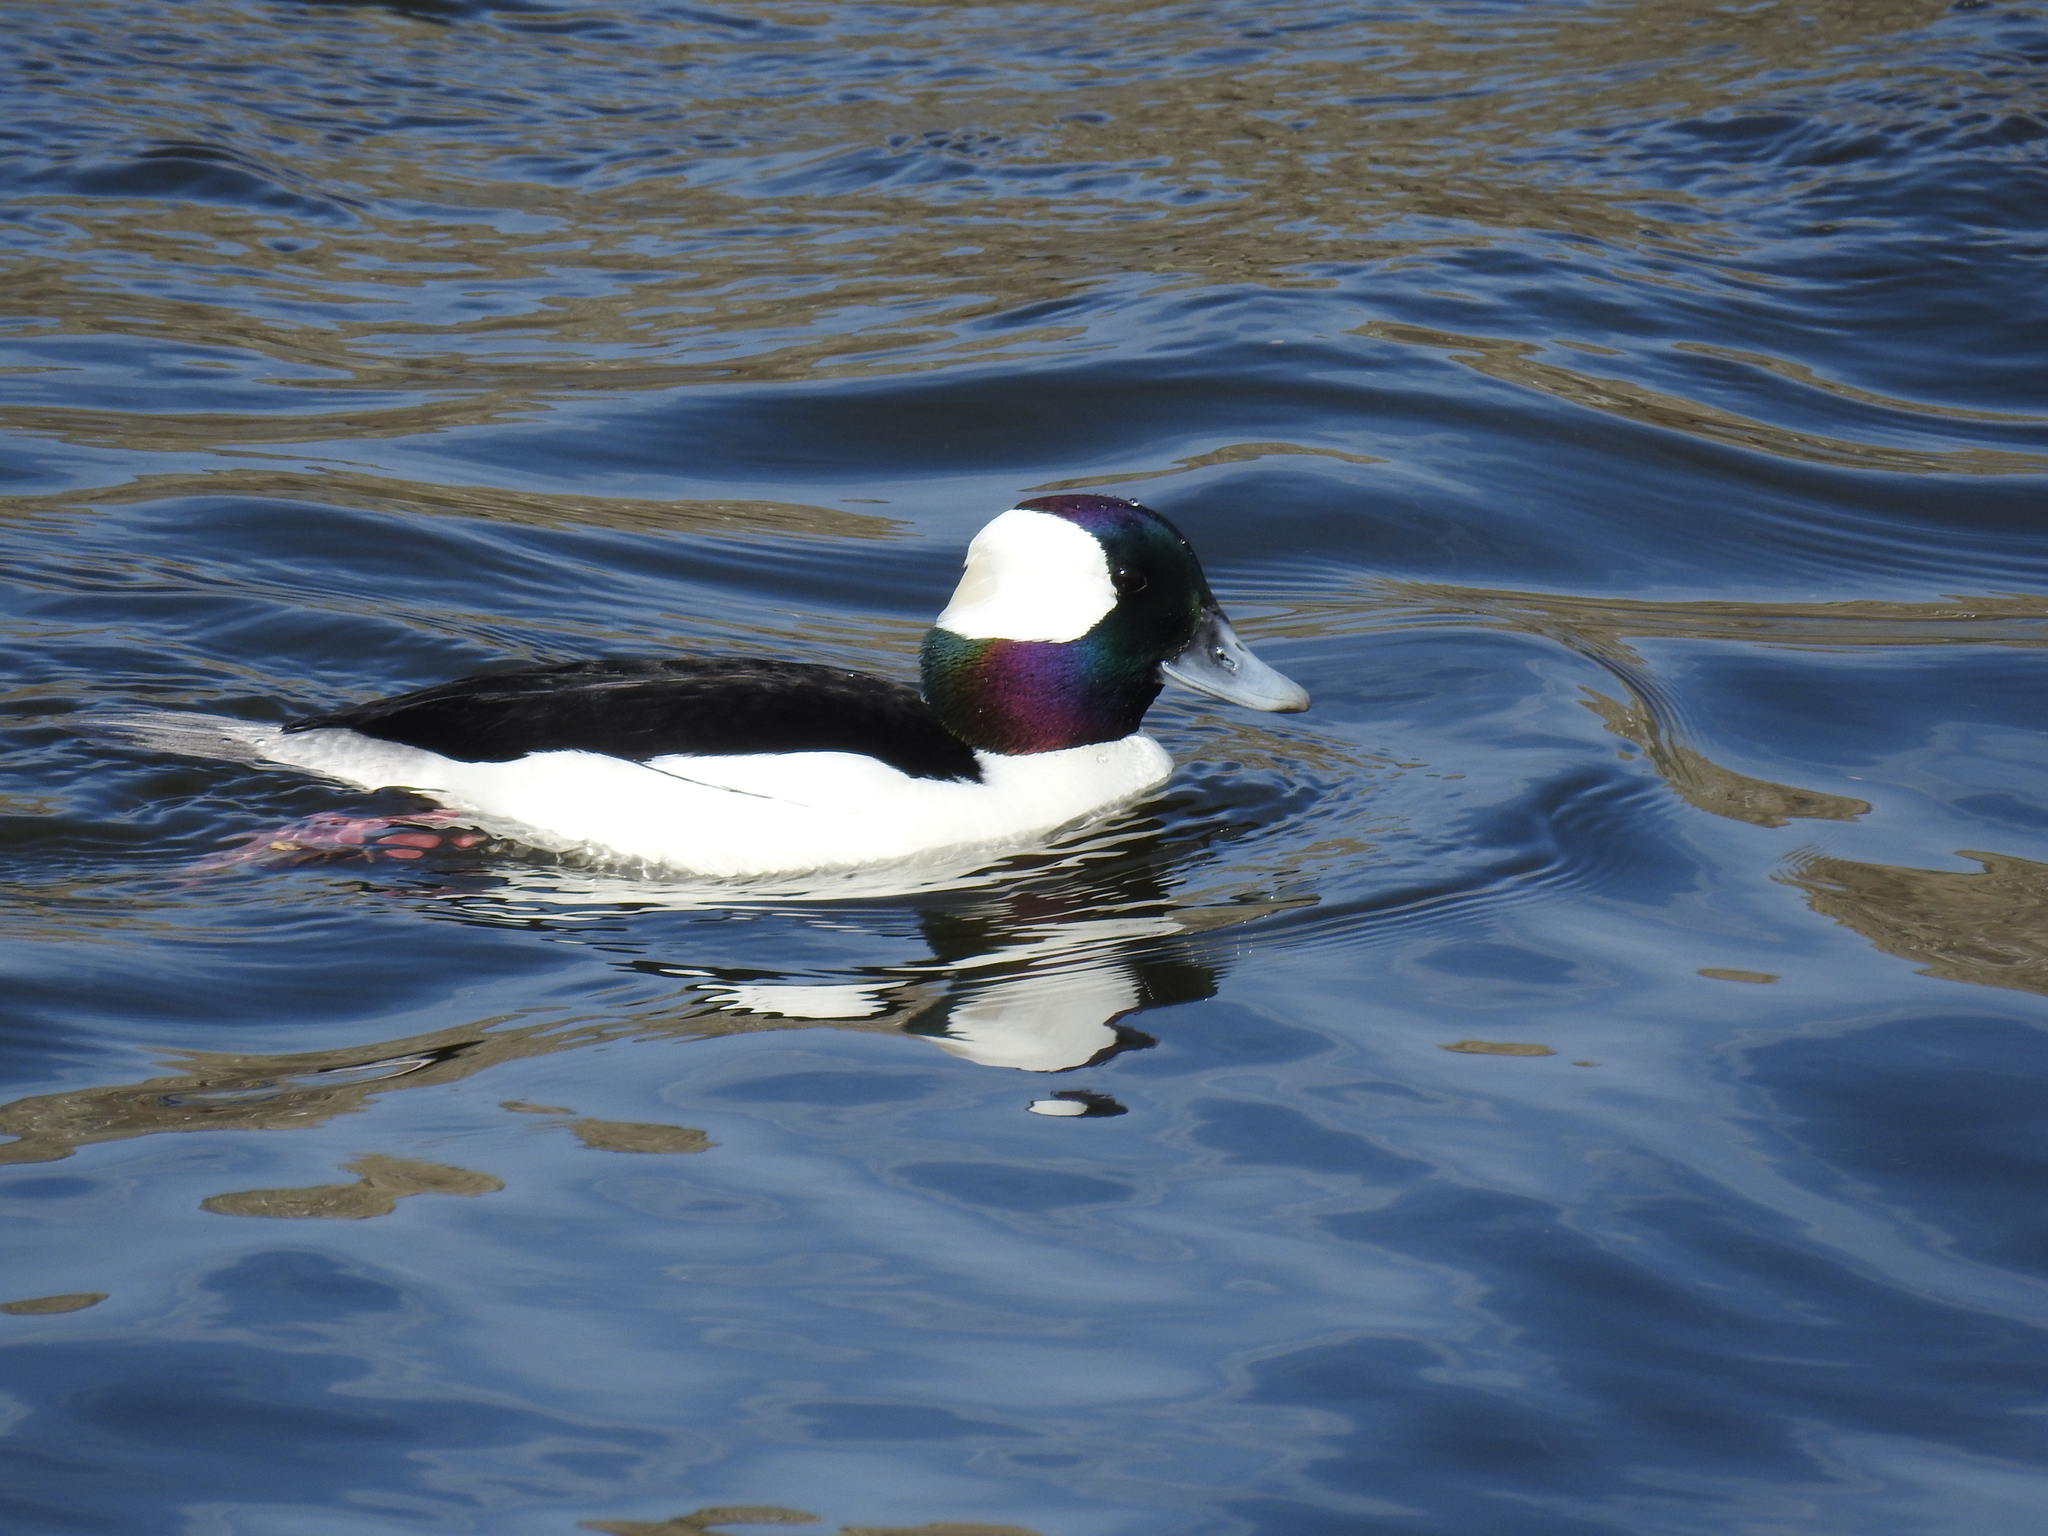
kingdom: Animalia
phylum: Chordata
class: Aves
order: Anseriformes
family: Anatidae
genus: Bucephala
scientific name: Bucephala albeola
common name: Bufflehead
